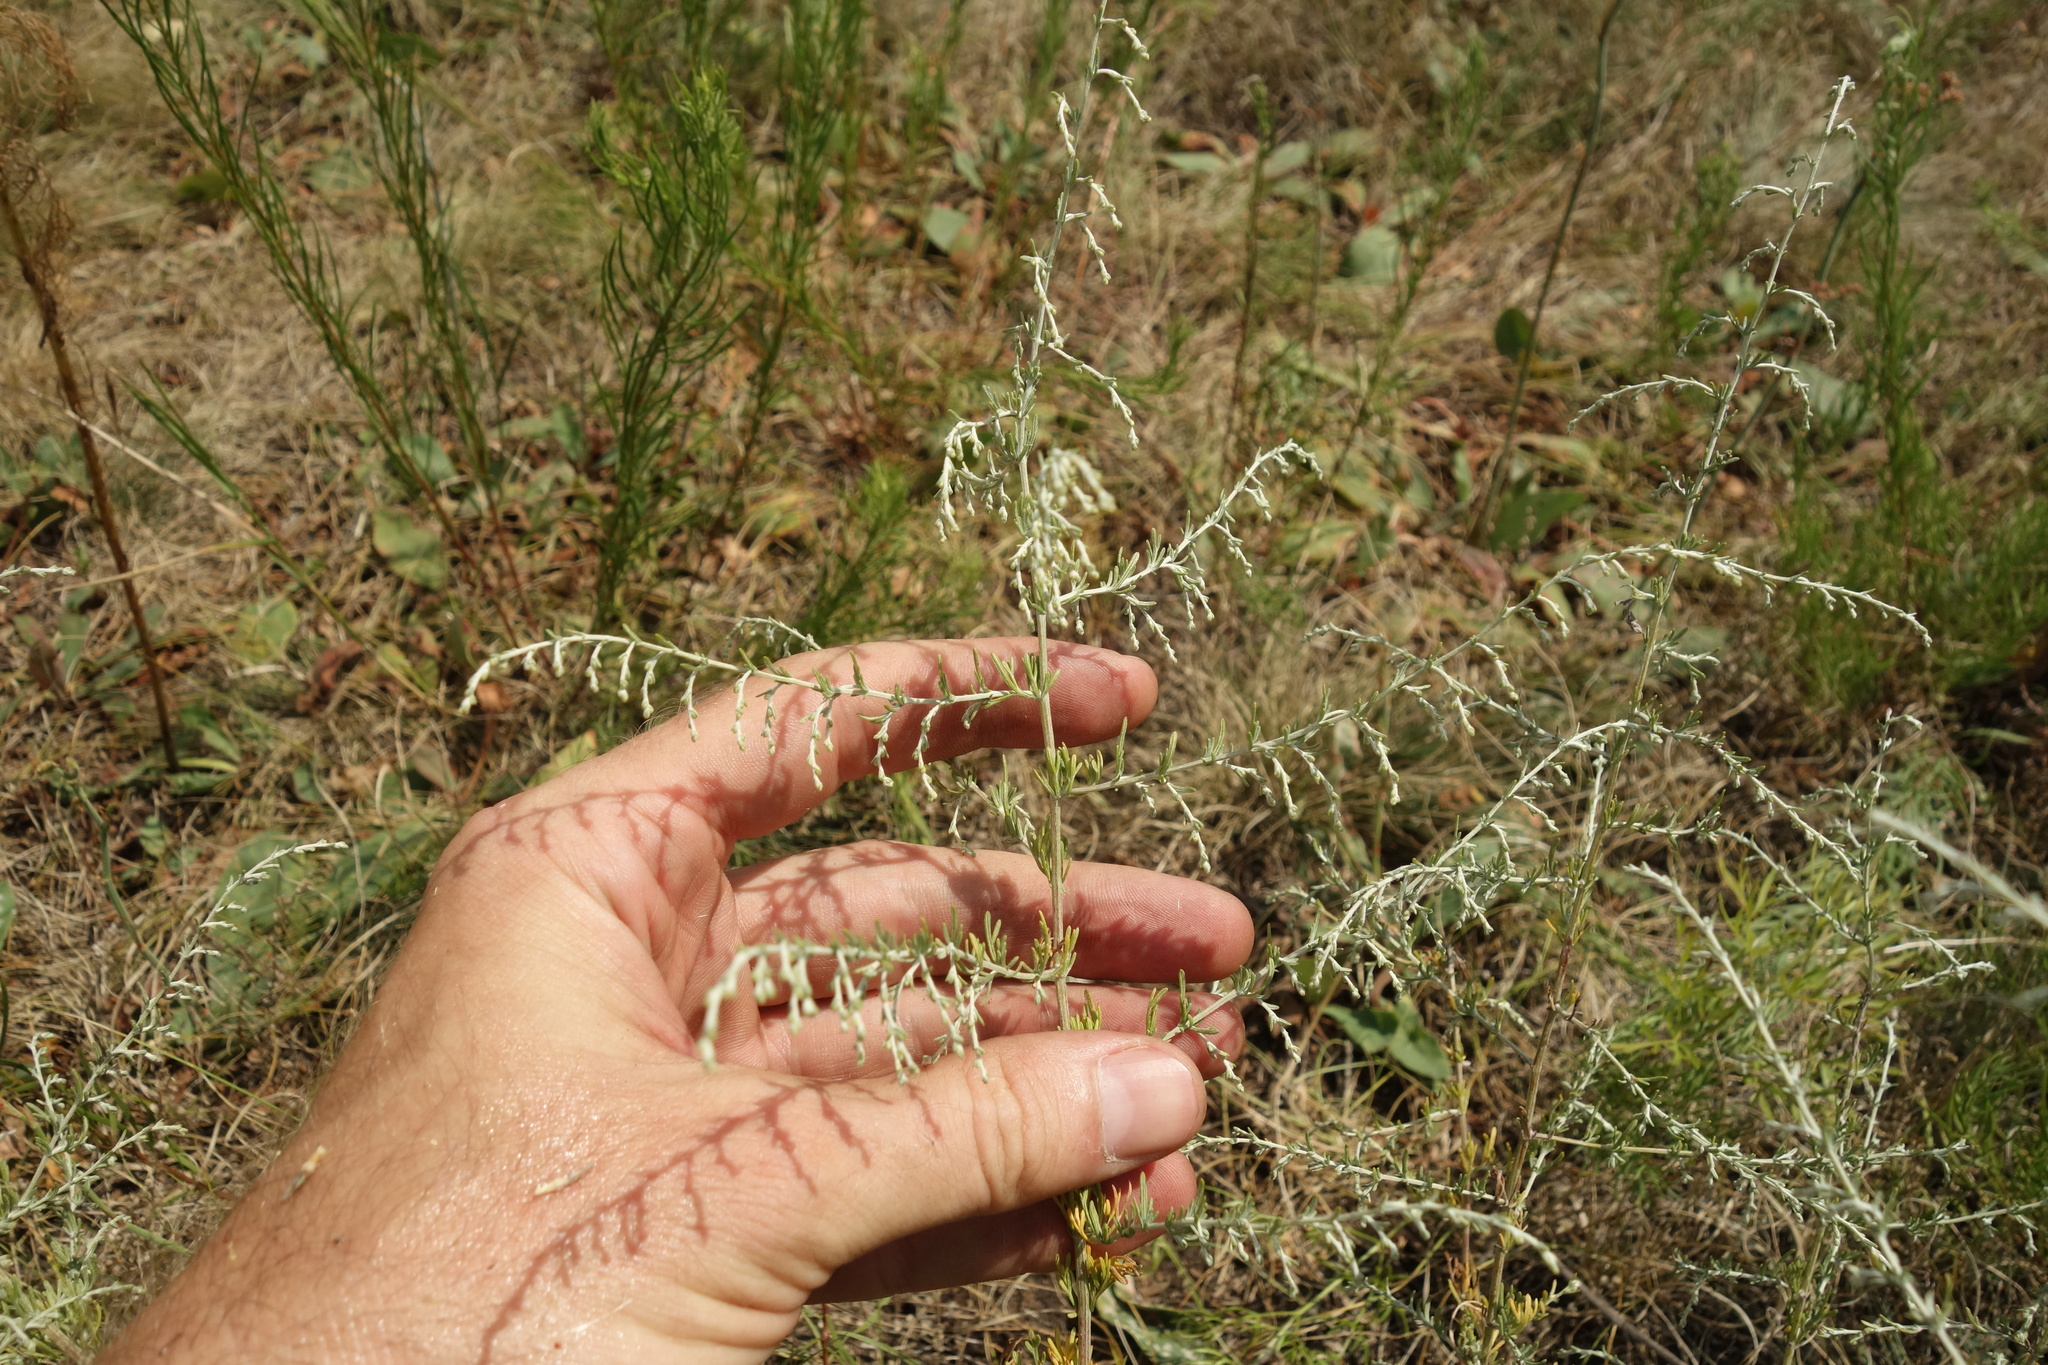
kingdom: Plantae
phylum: Tracheophyta
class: Magnoliopsida
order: Asterales
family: Asteraceae
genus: Artemisia
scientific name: Artemisia santonicum
